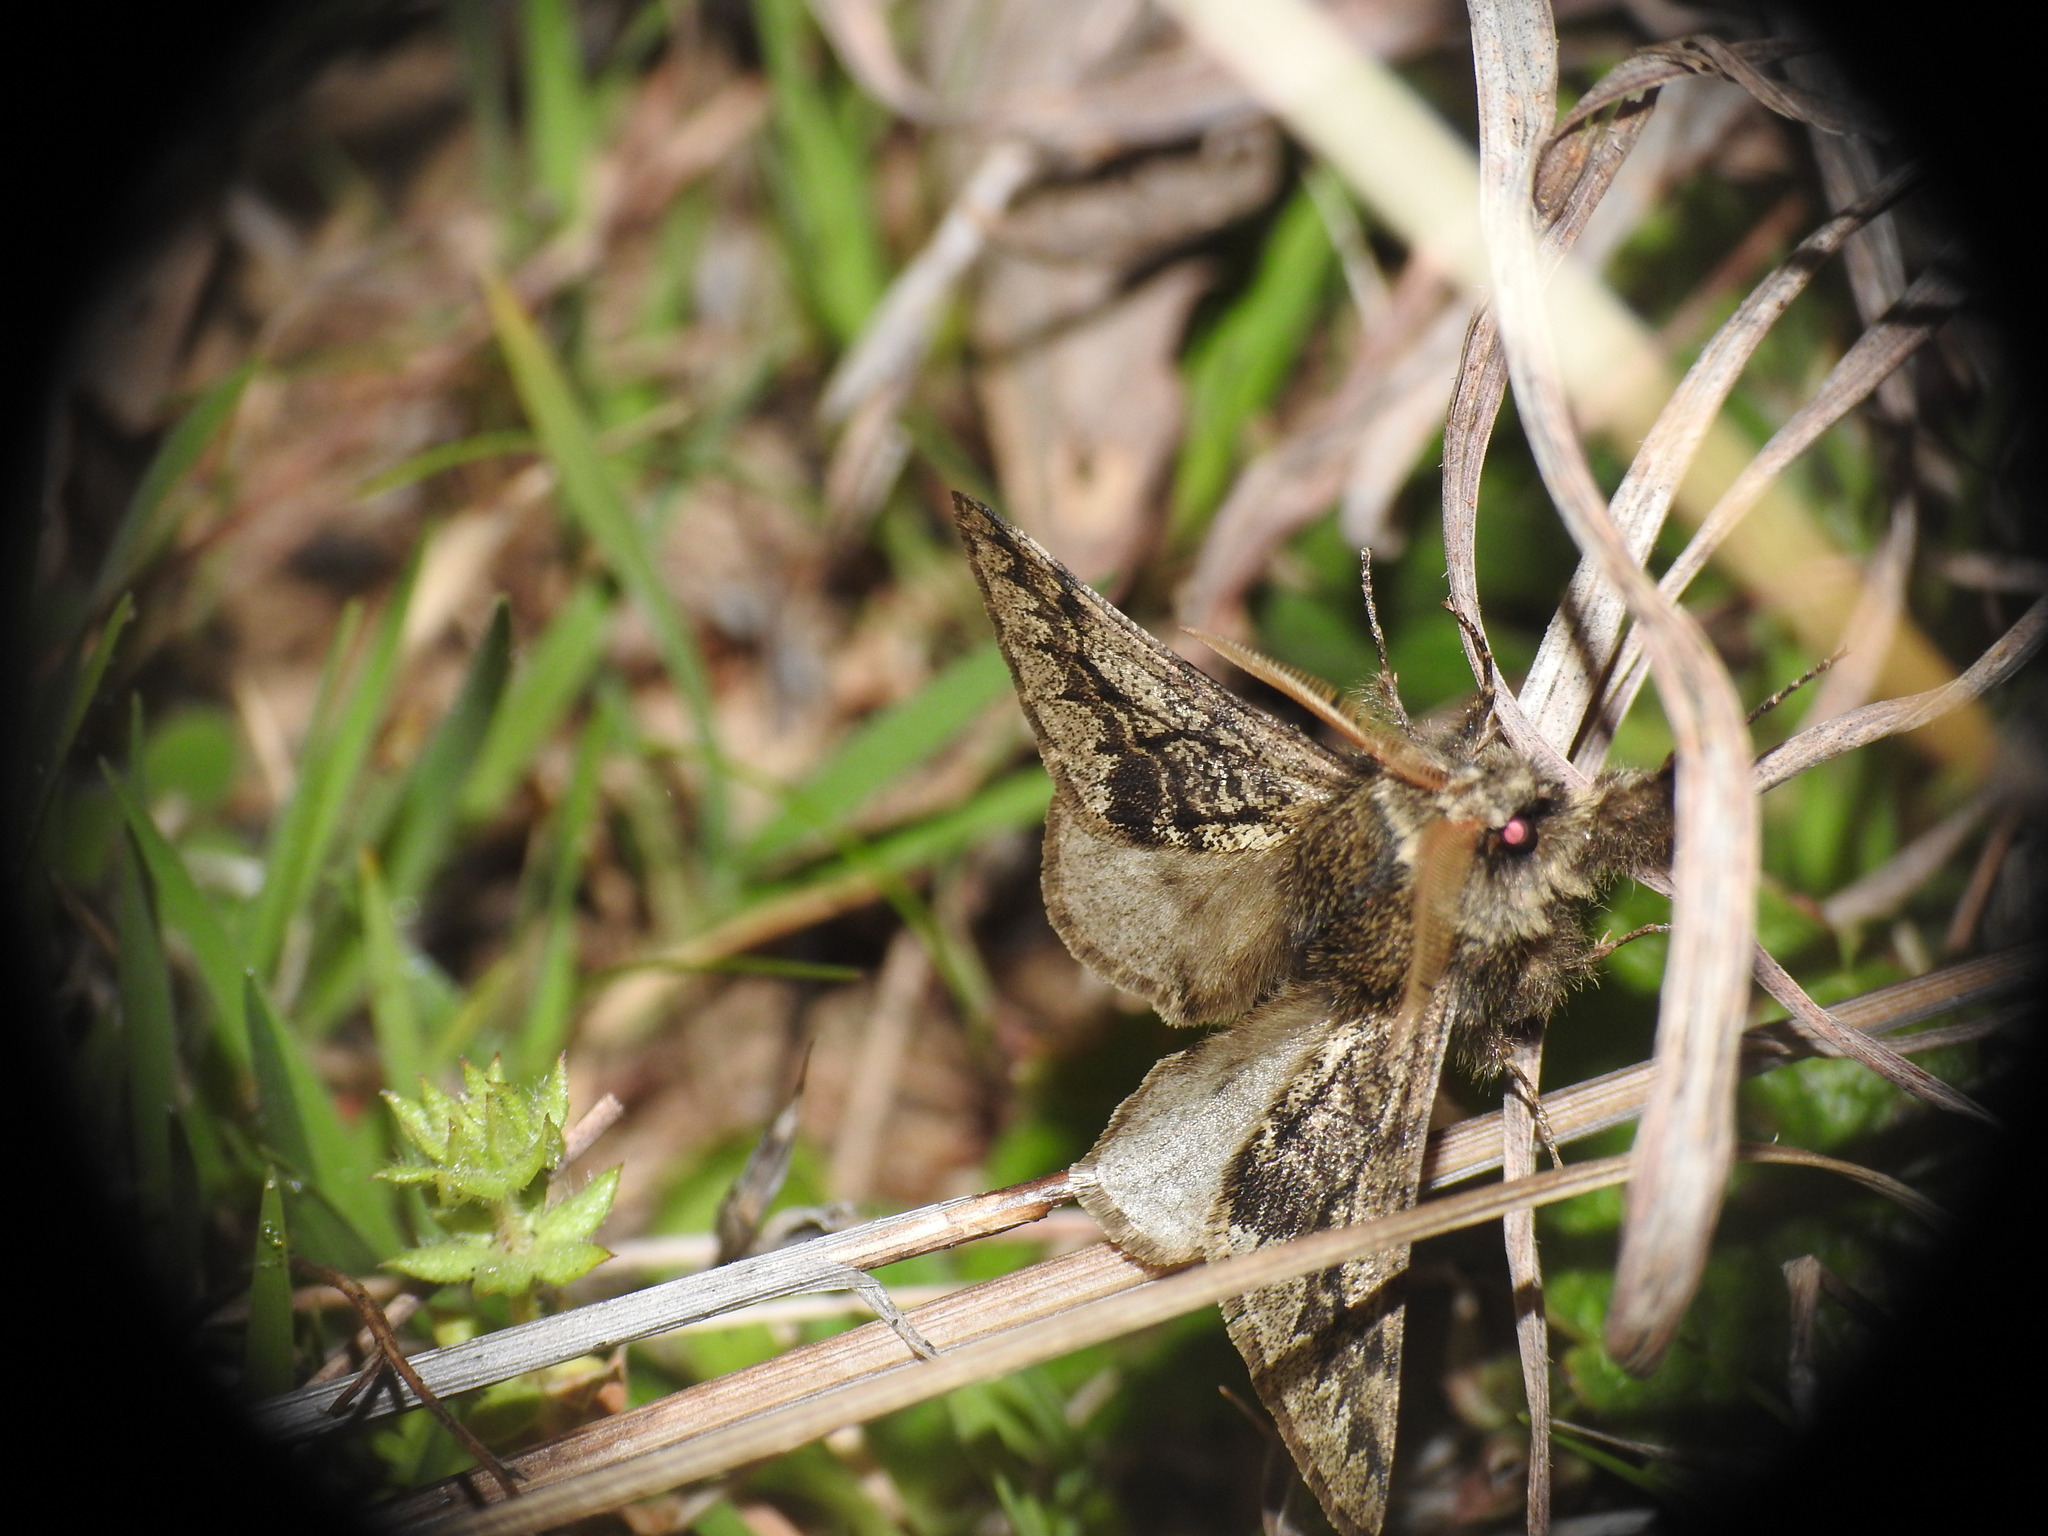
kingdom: Animalia
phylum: Arthropoda
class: Insecta
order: Lepidoptera
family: Geometridae
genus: Apocheima
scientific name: Apocheima hispidaria
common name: Small brindled beauty
